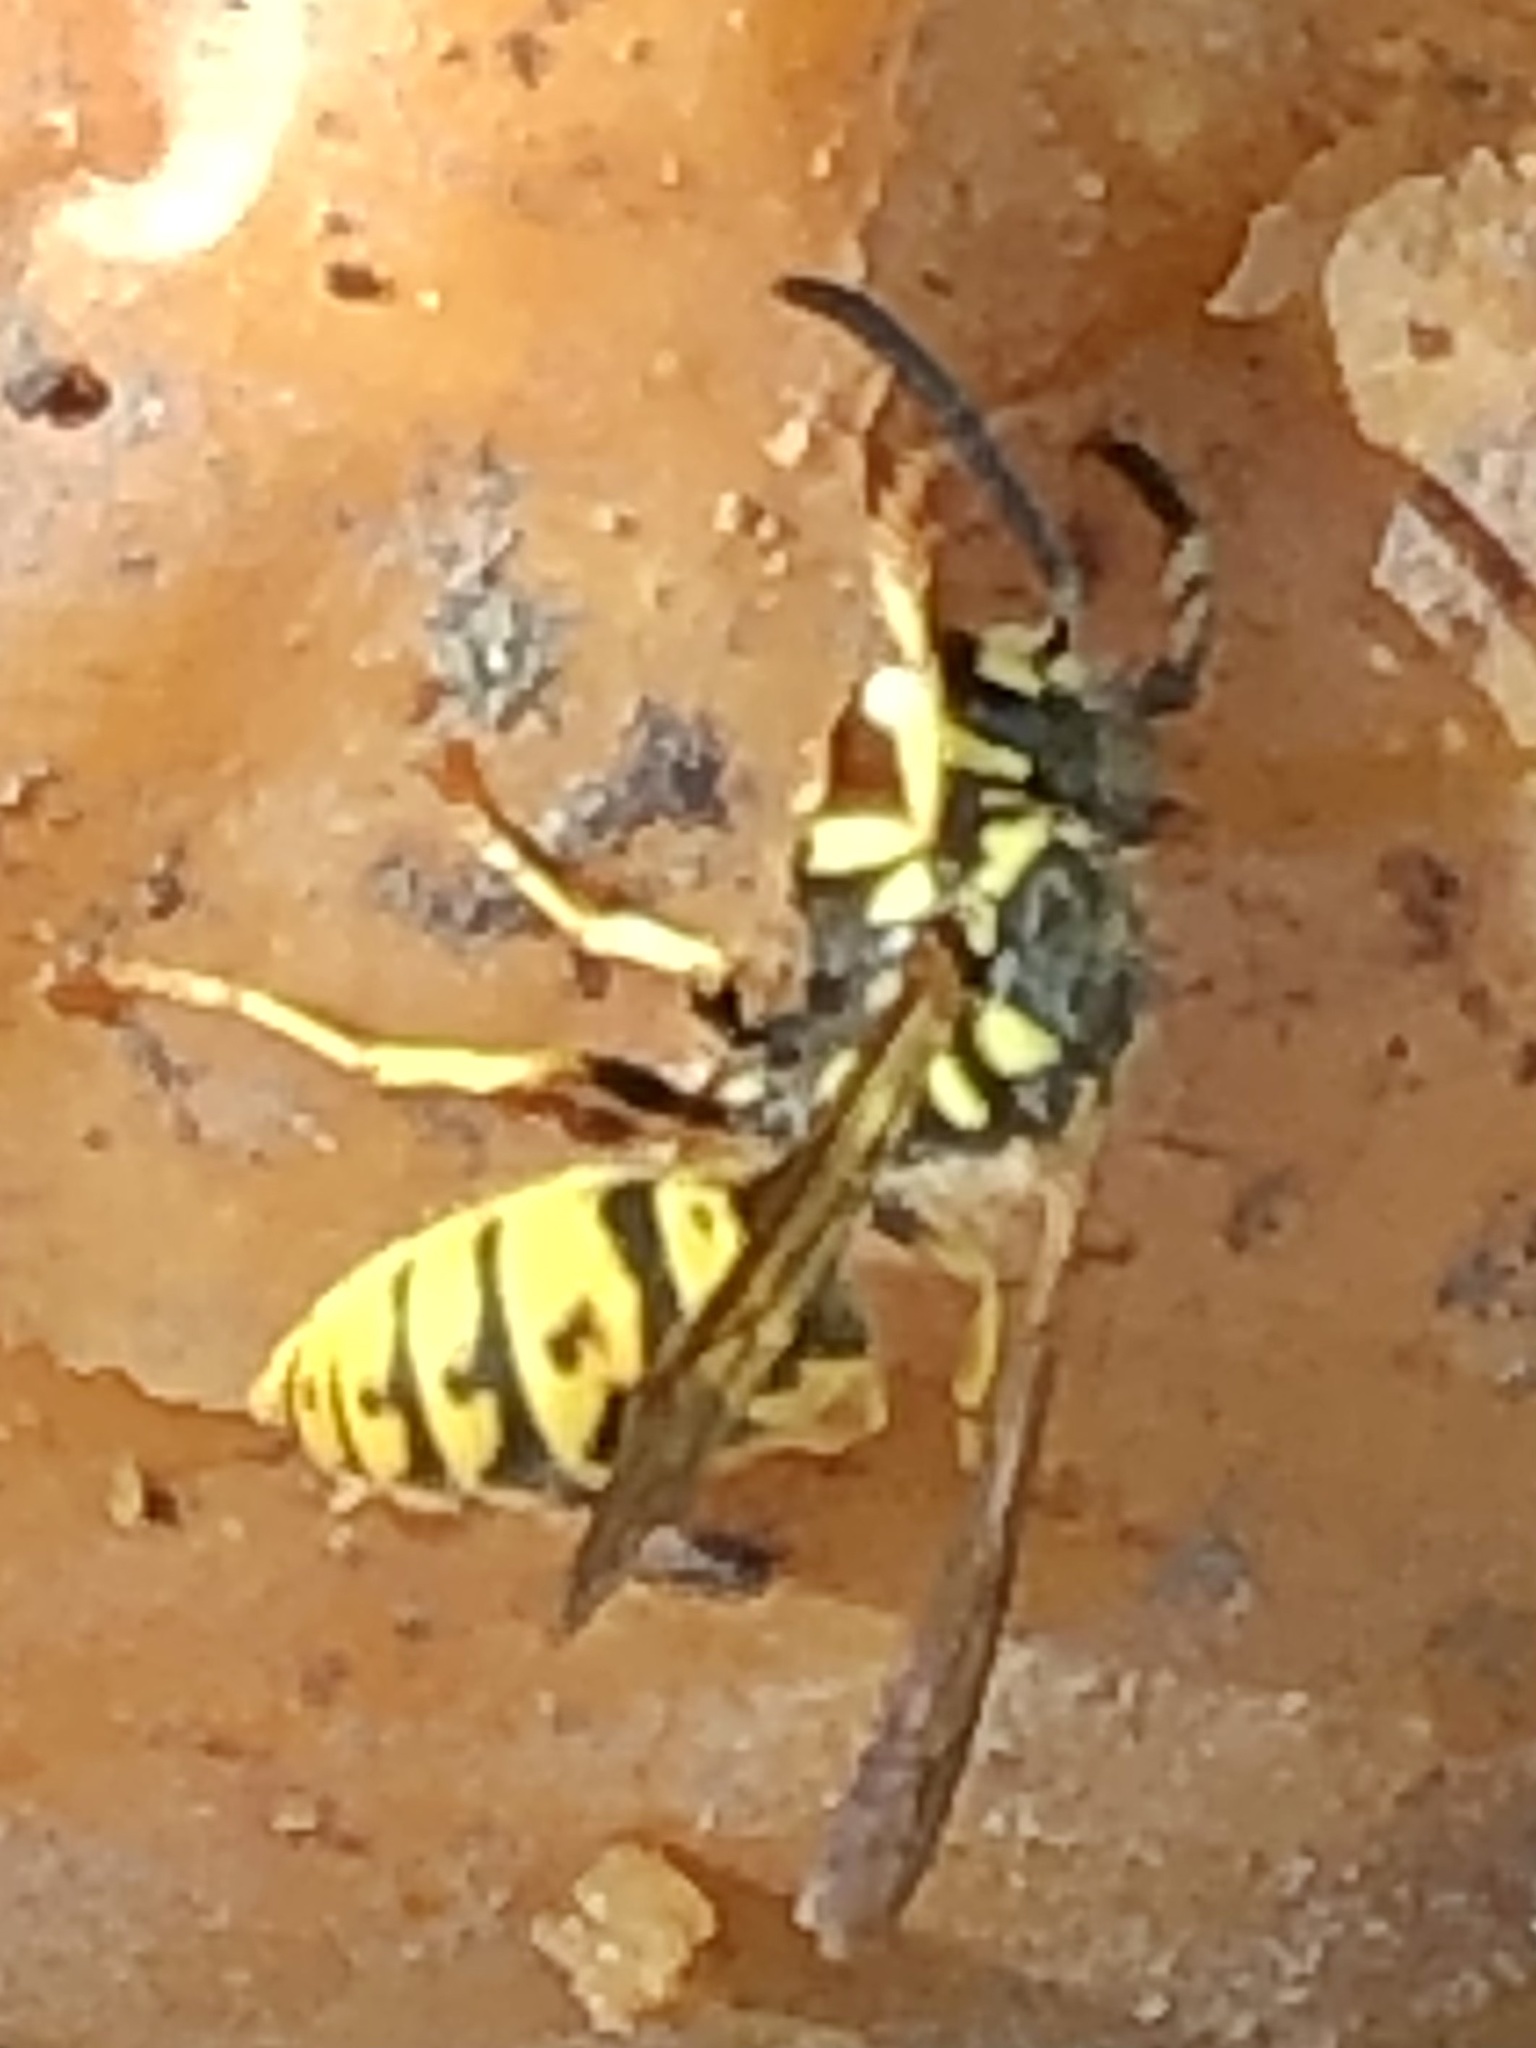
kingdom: Animalia
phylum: Arthropoda
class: Insecta
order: Hymenoptera
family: Vespidae
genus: Vespula
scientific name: Vespula germanica
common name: German wasp
